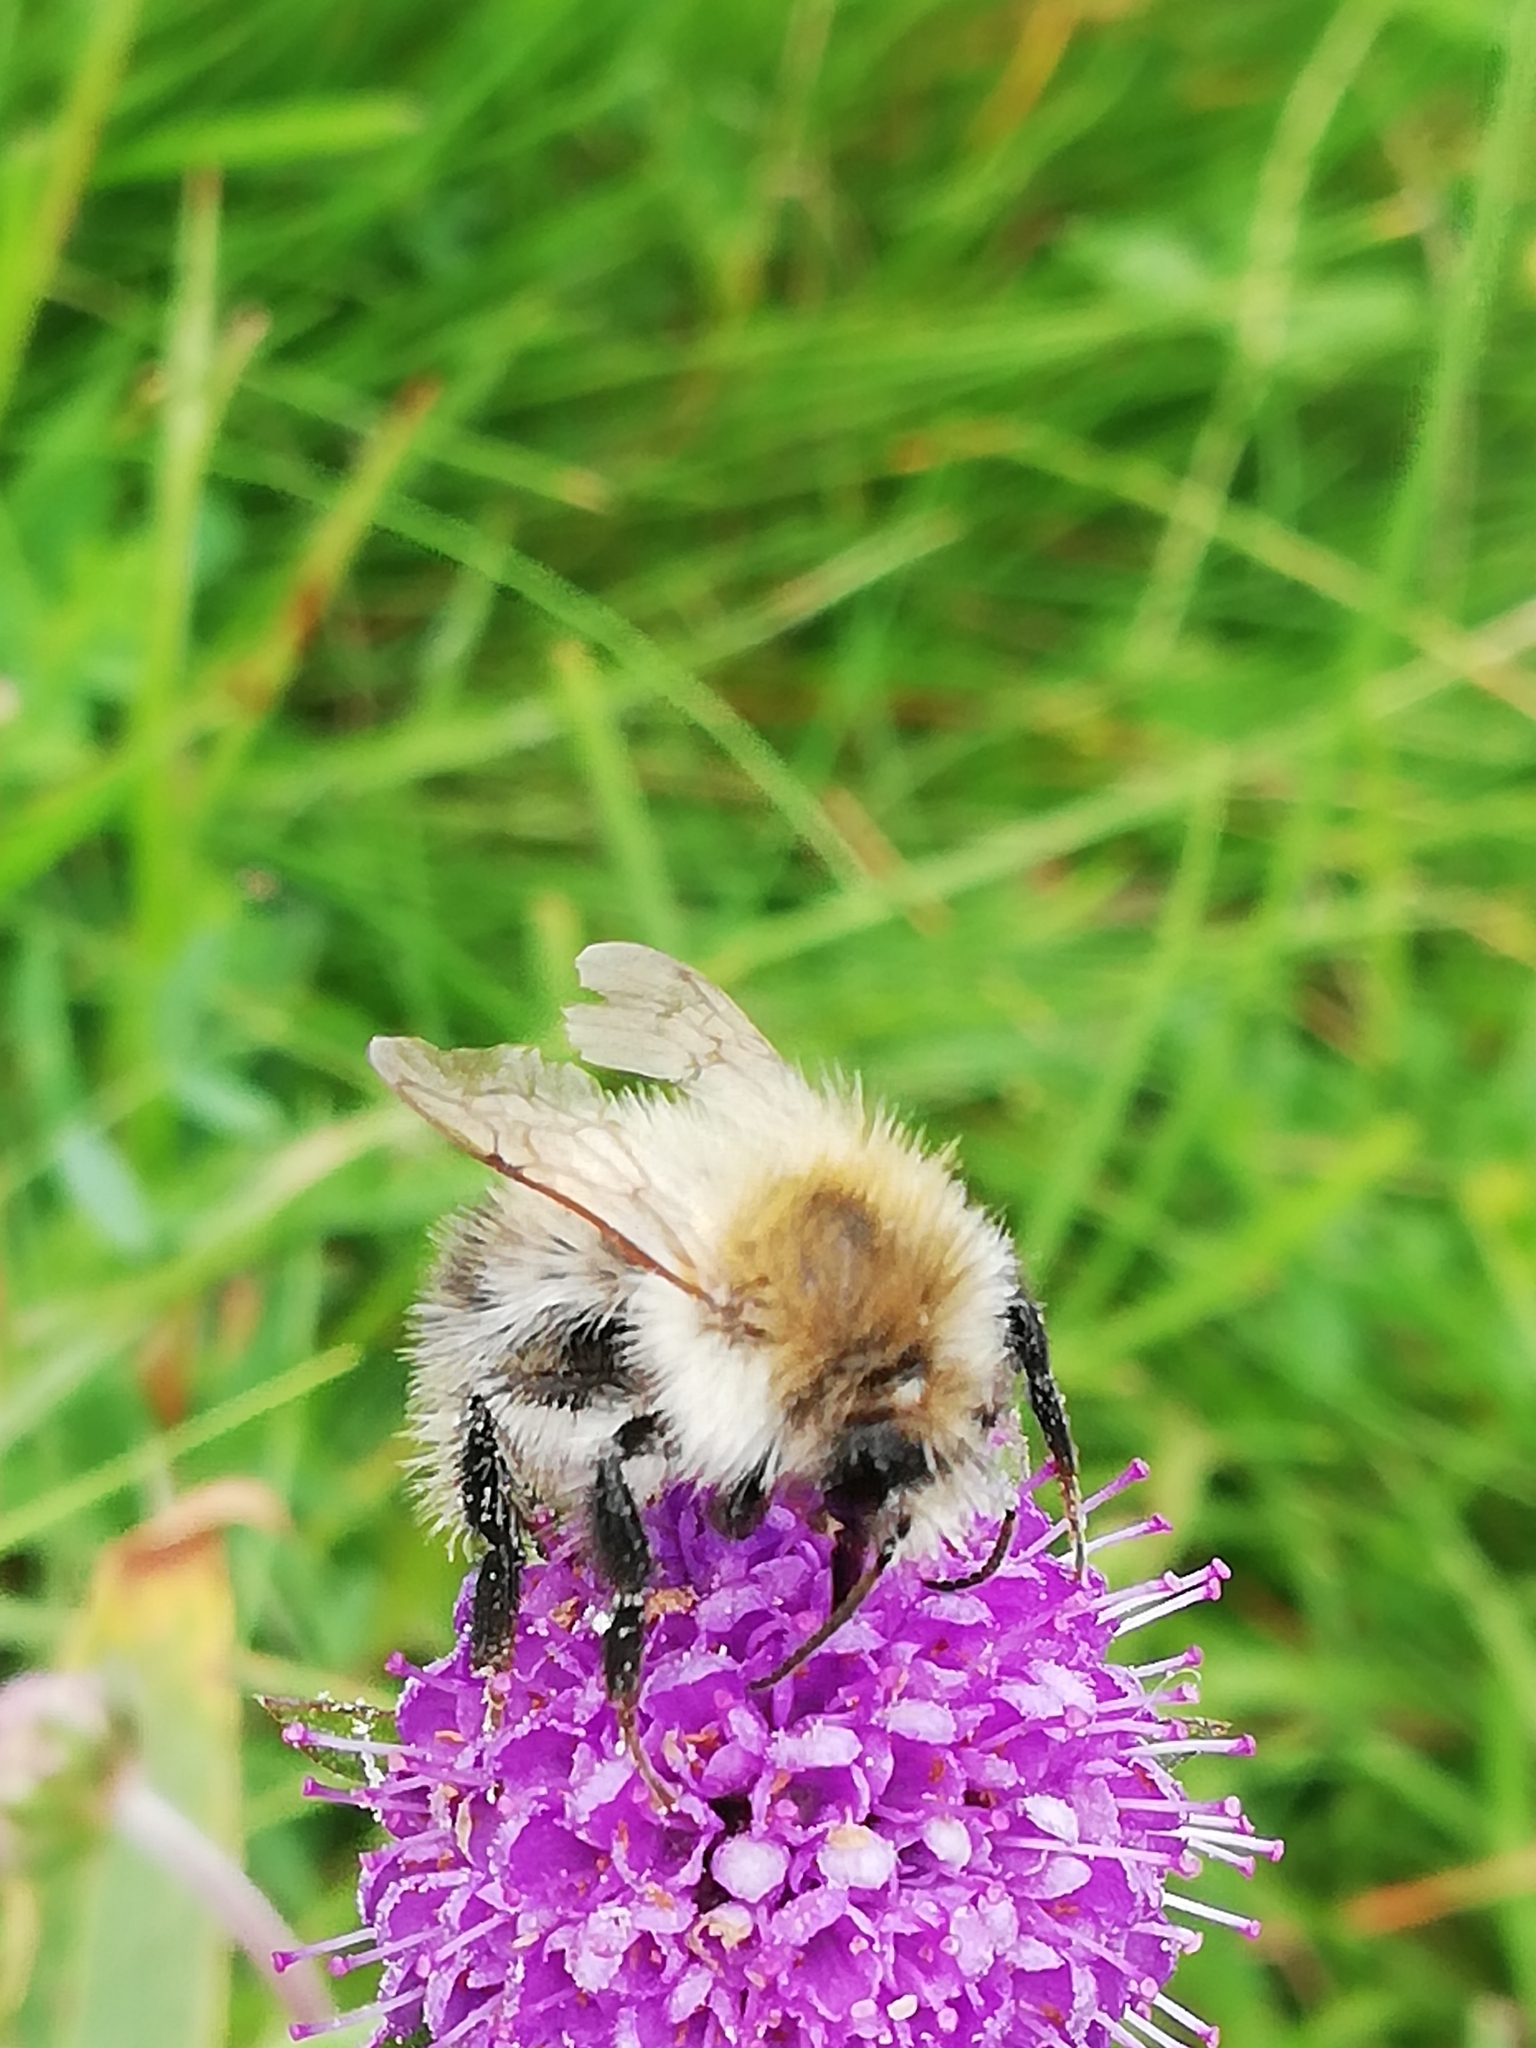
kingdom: Animalia
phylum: Arthropoda
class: Insecta
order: Hymenoptera
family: Apidae
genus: Bombus
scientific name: Bombus pascuorum
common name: Common carder bee
